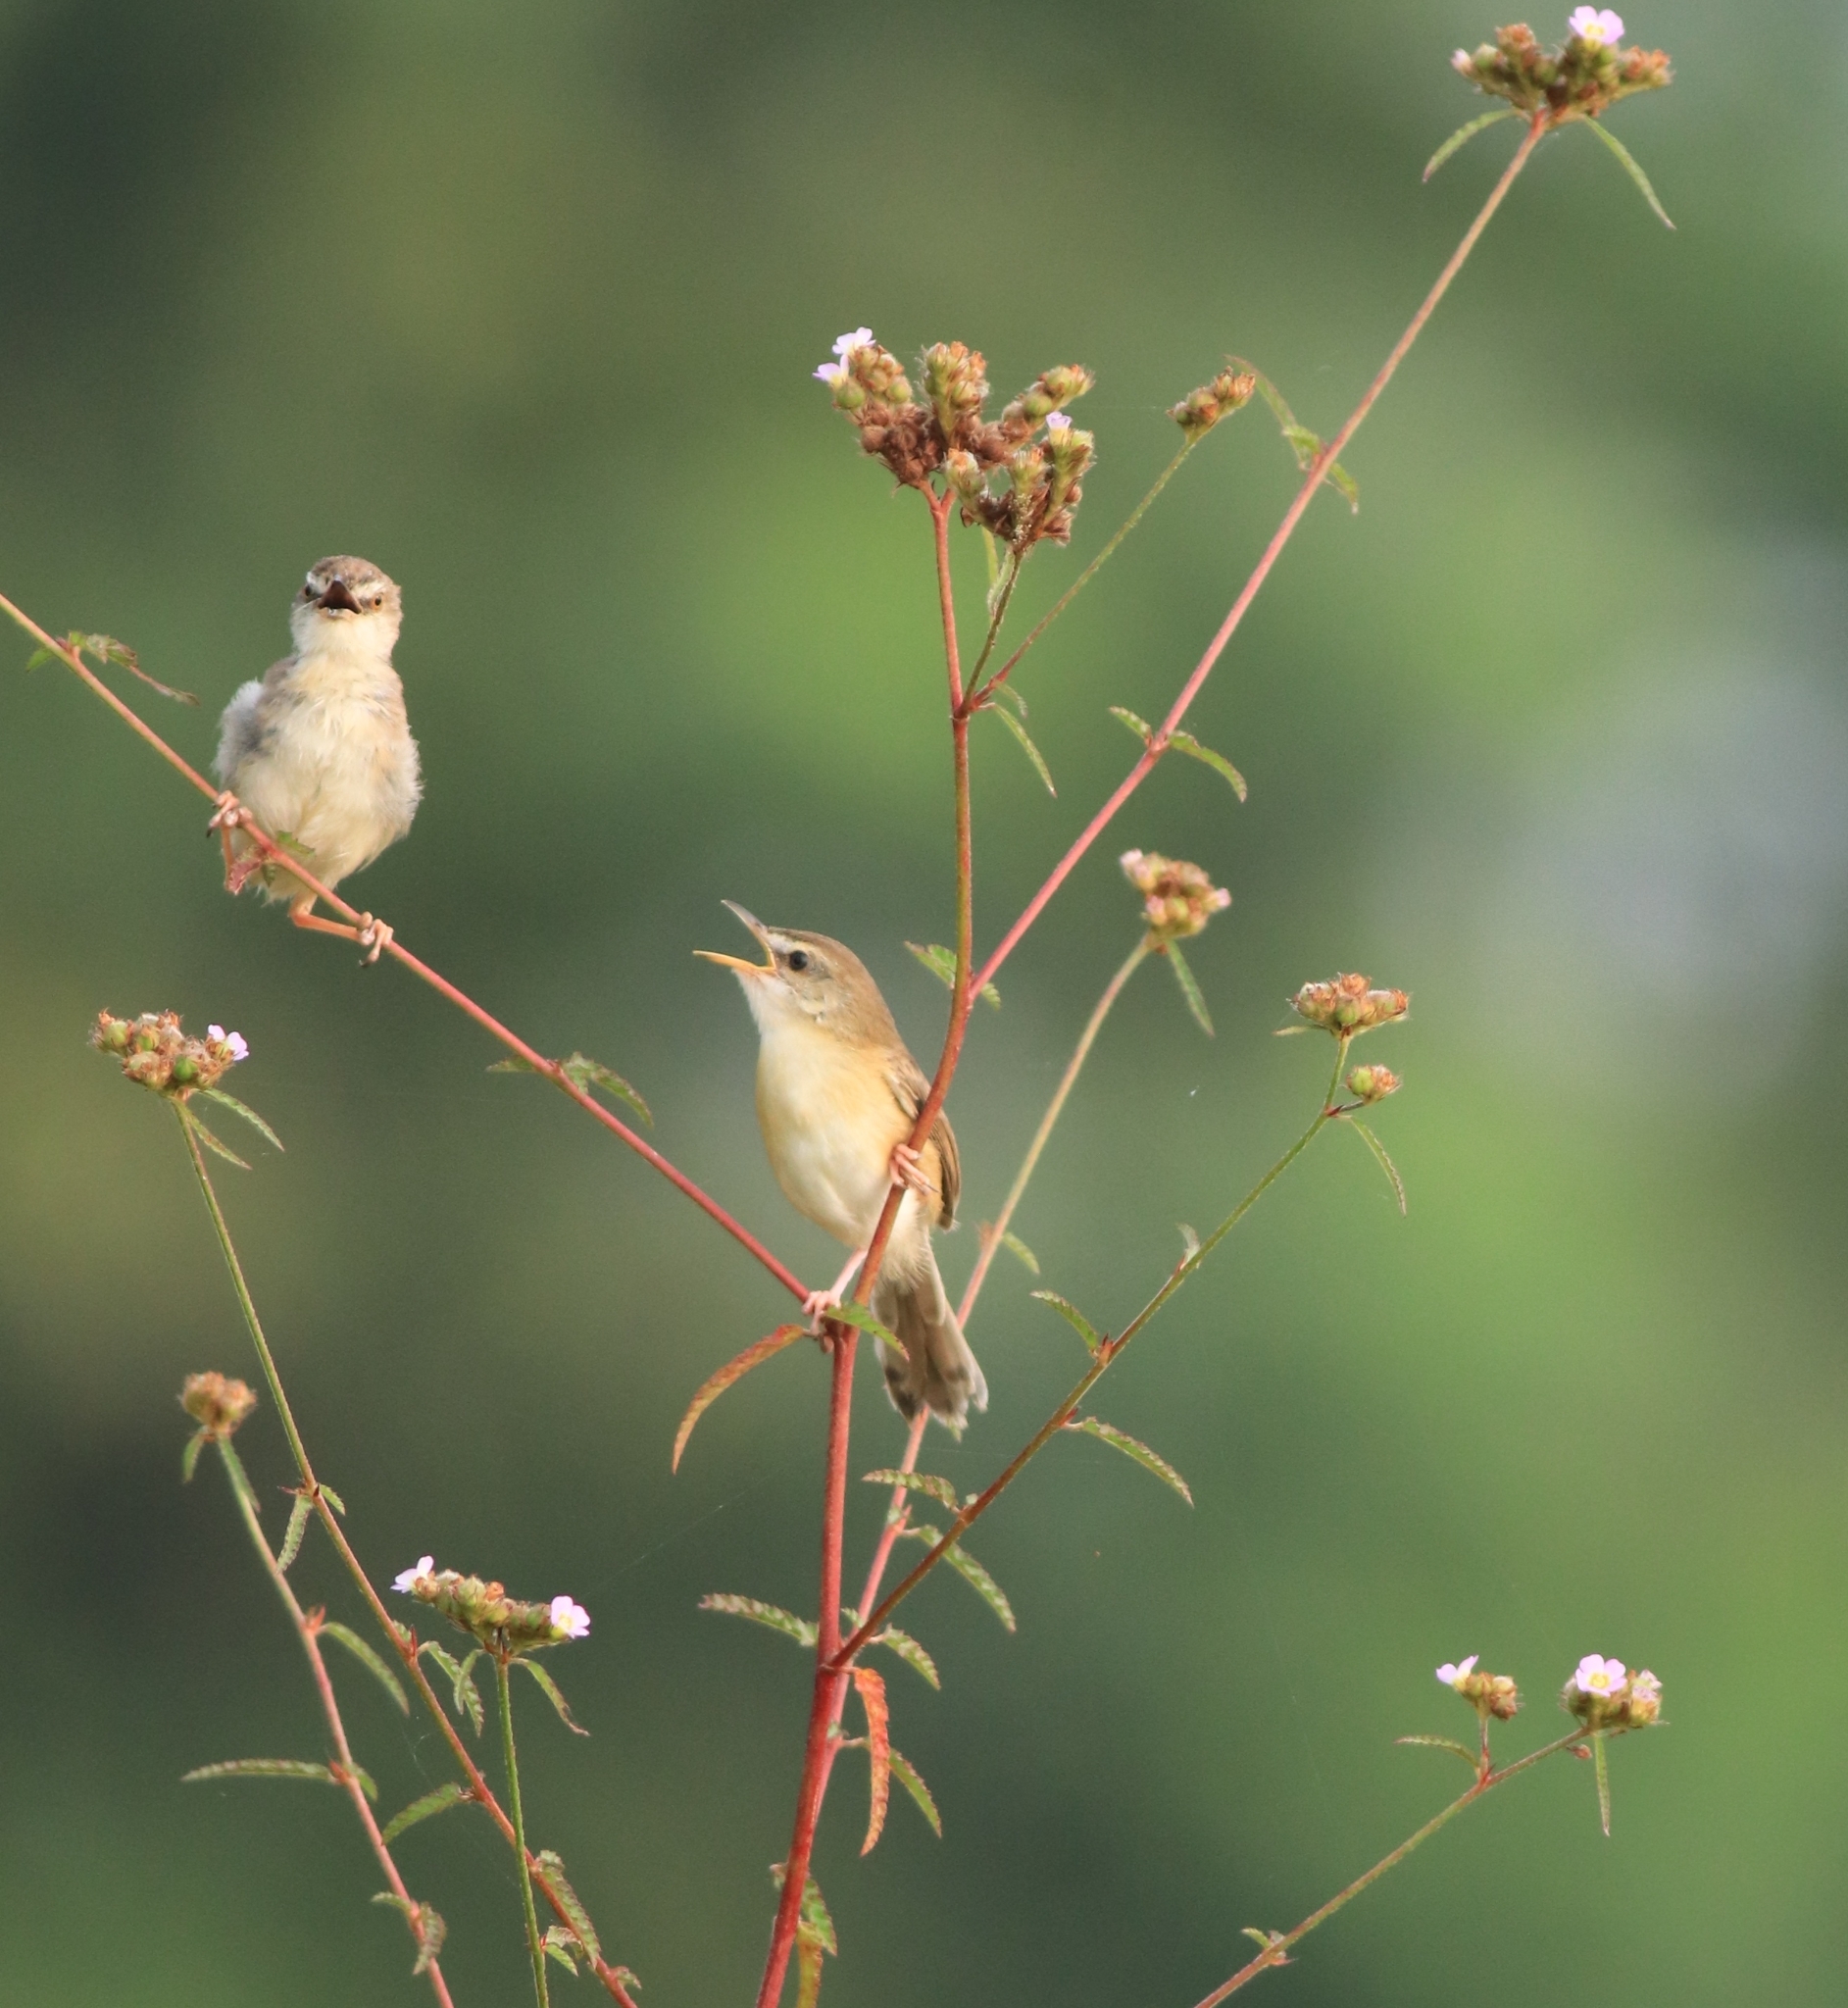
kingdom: Animalia
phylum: Chordata
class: Aves
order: Passeriformes
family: Cisticolidae
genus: Prinia
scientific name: Prinia inornata
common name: Plain prinia
